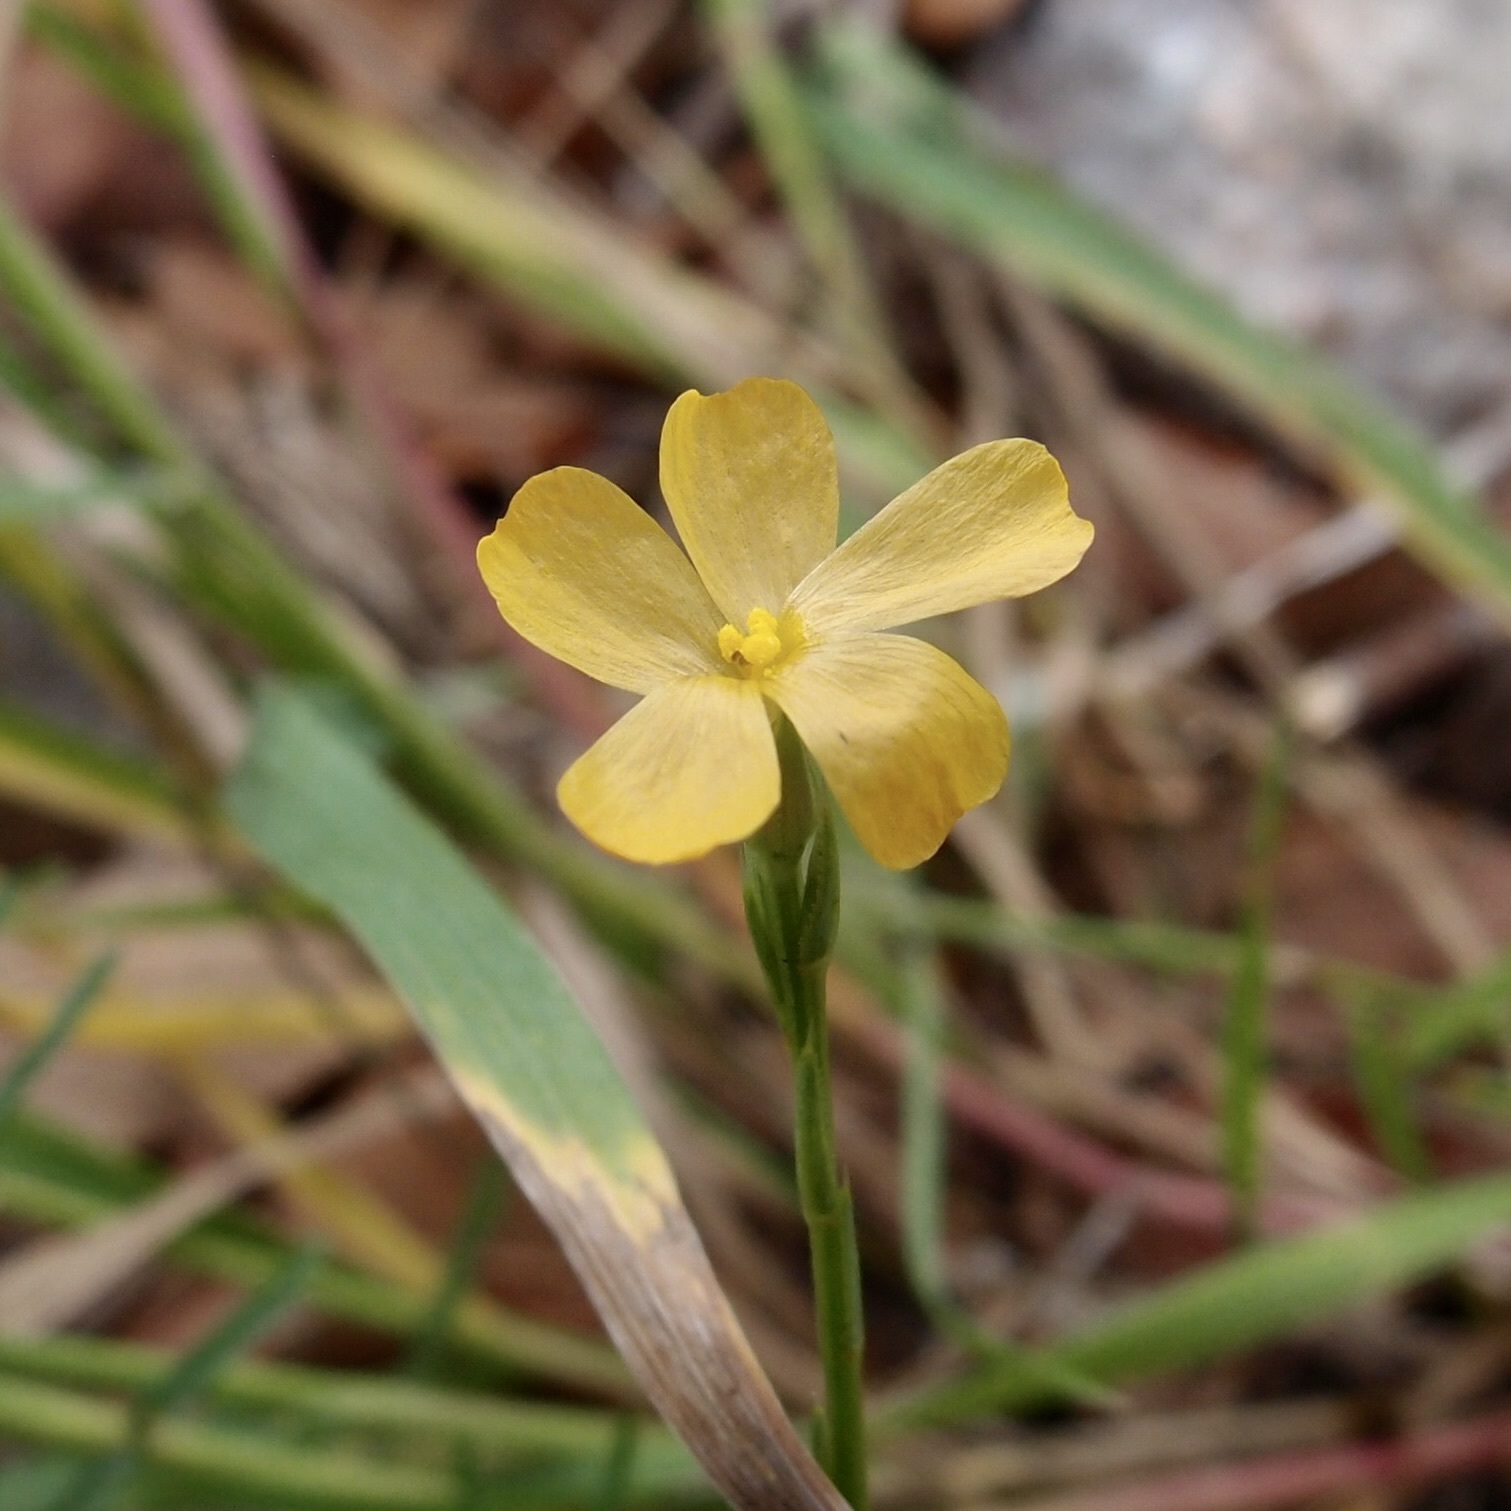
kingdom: Plantae
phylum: Tracheophyta
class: Magnoliopsida
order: Malpighiales
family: Linaceae
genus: Linum
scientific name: Linum australe
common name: Small yellow flax
